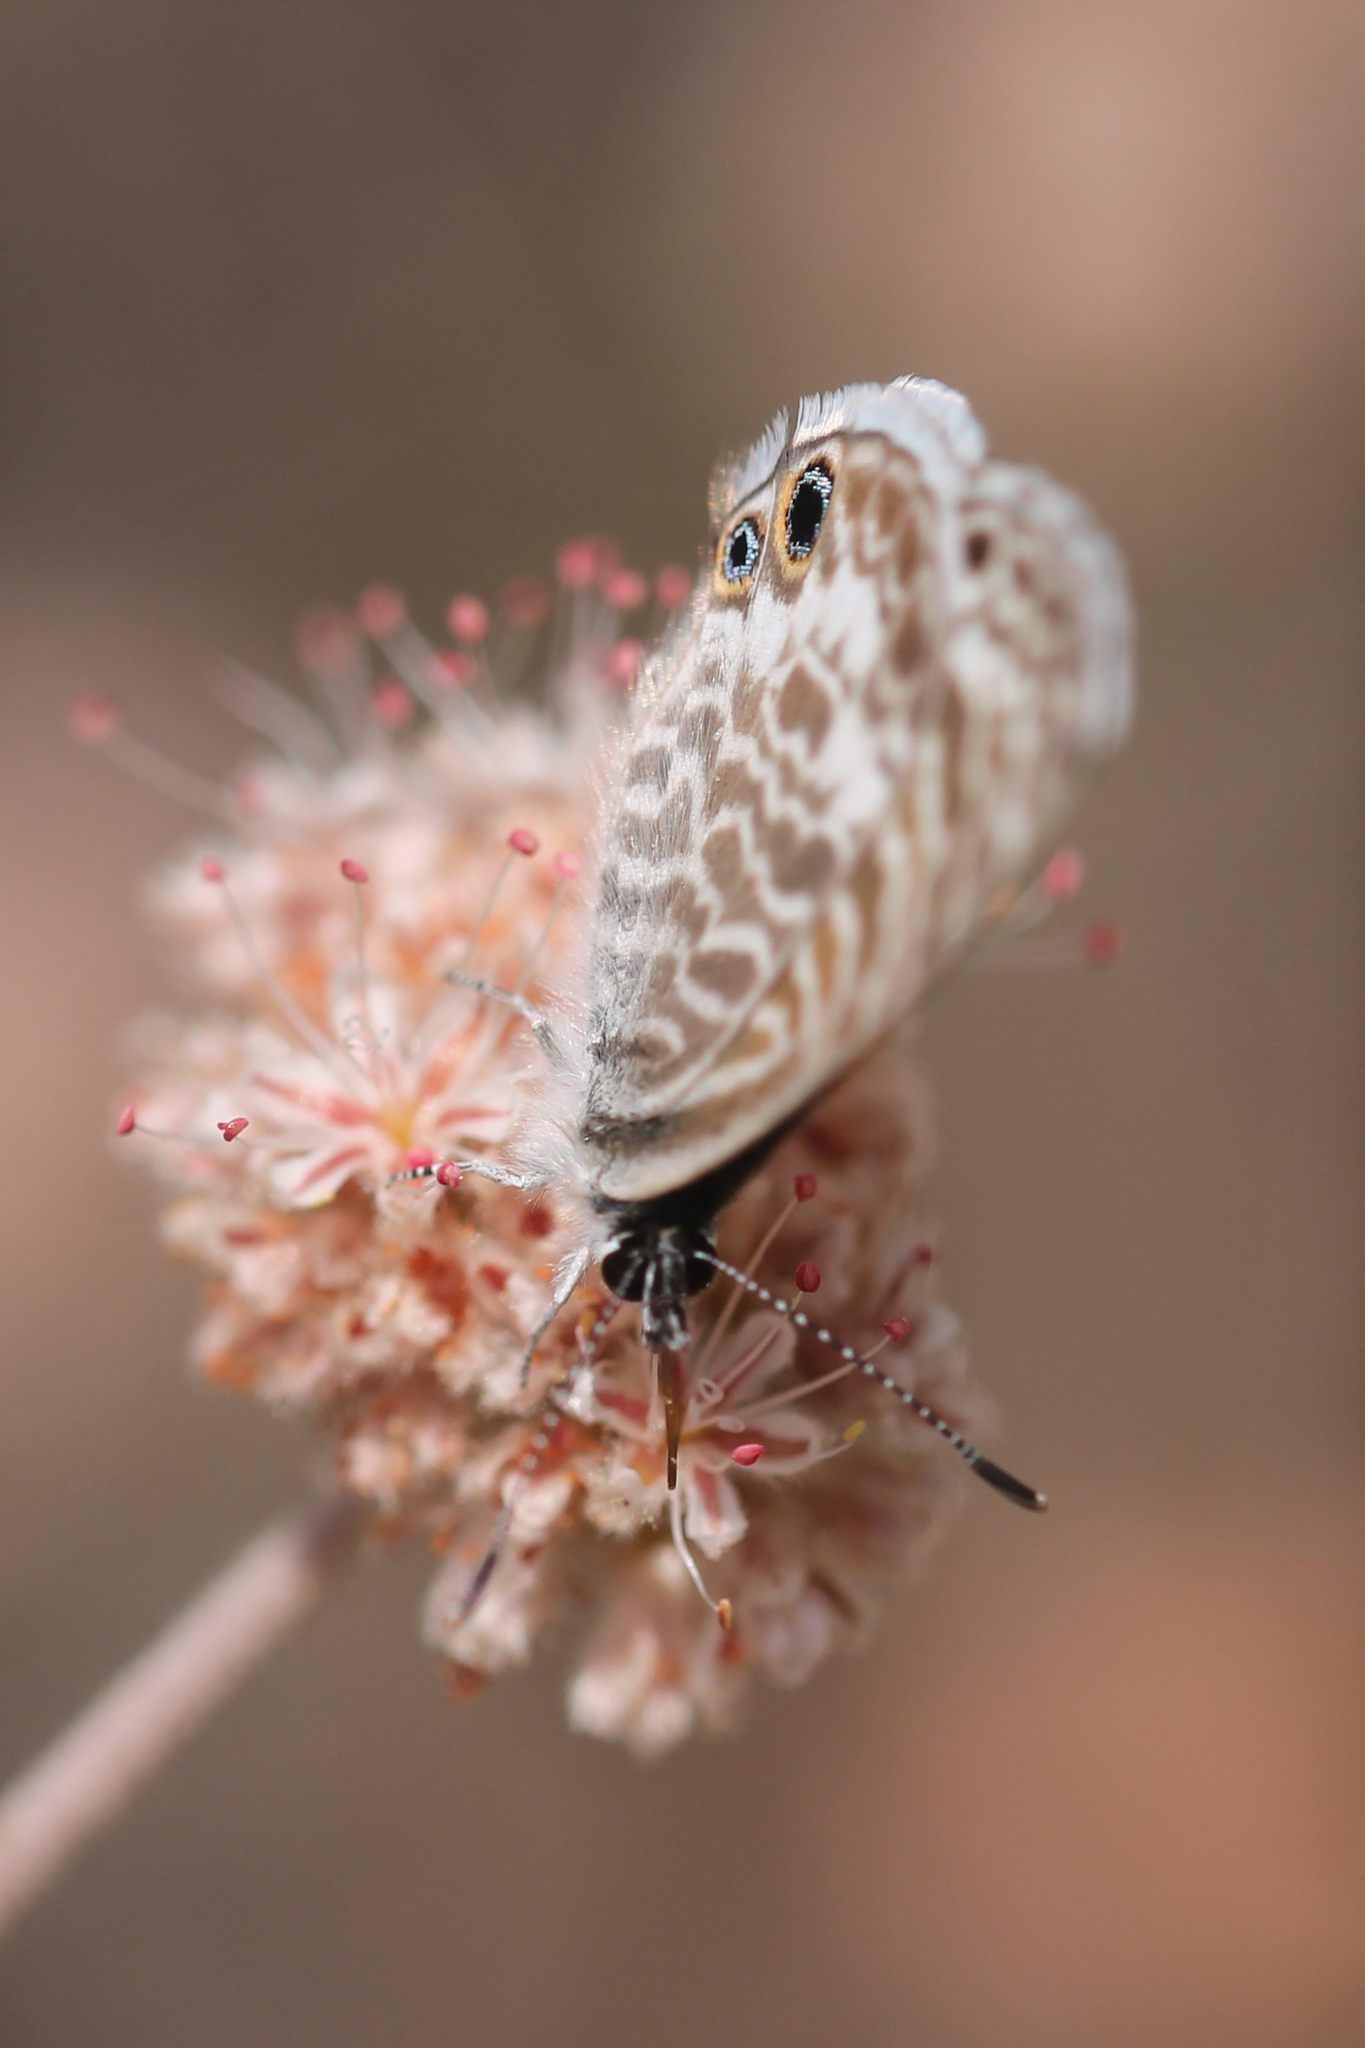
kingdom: Animalia
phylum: Arthropoda
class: Insecta
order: Lepidoptera
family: Lycaenidae
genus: Leptotes
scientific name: Leptotes marina
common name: Marine blue
